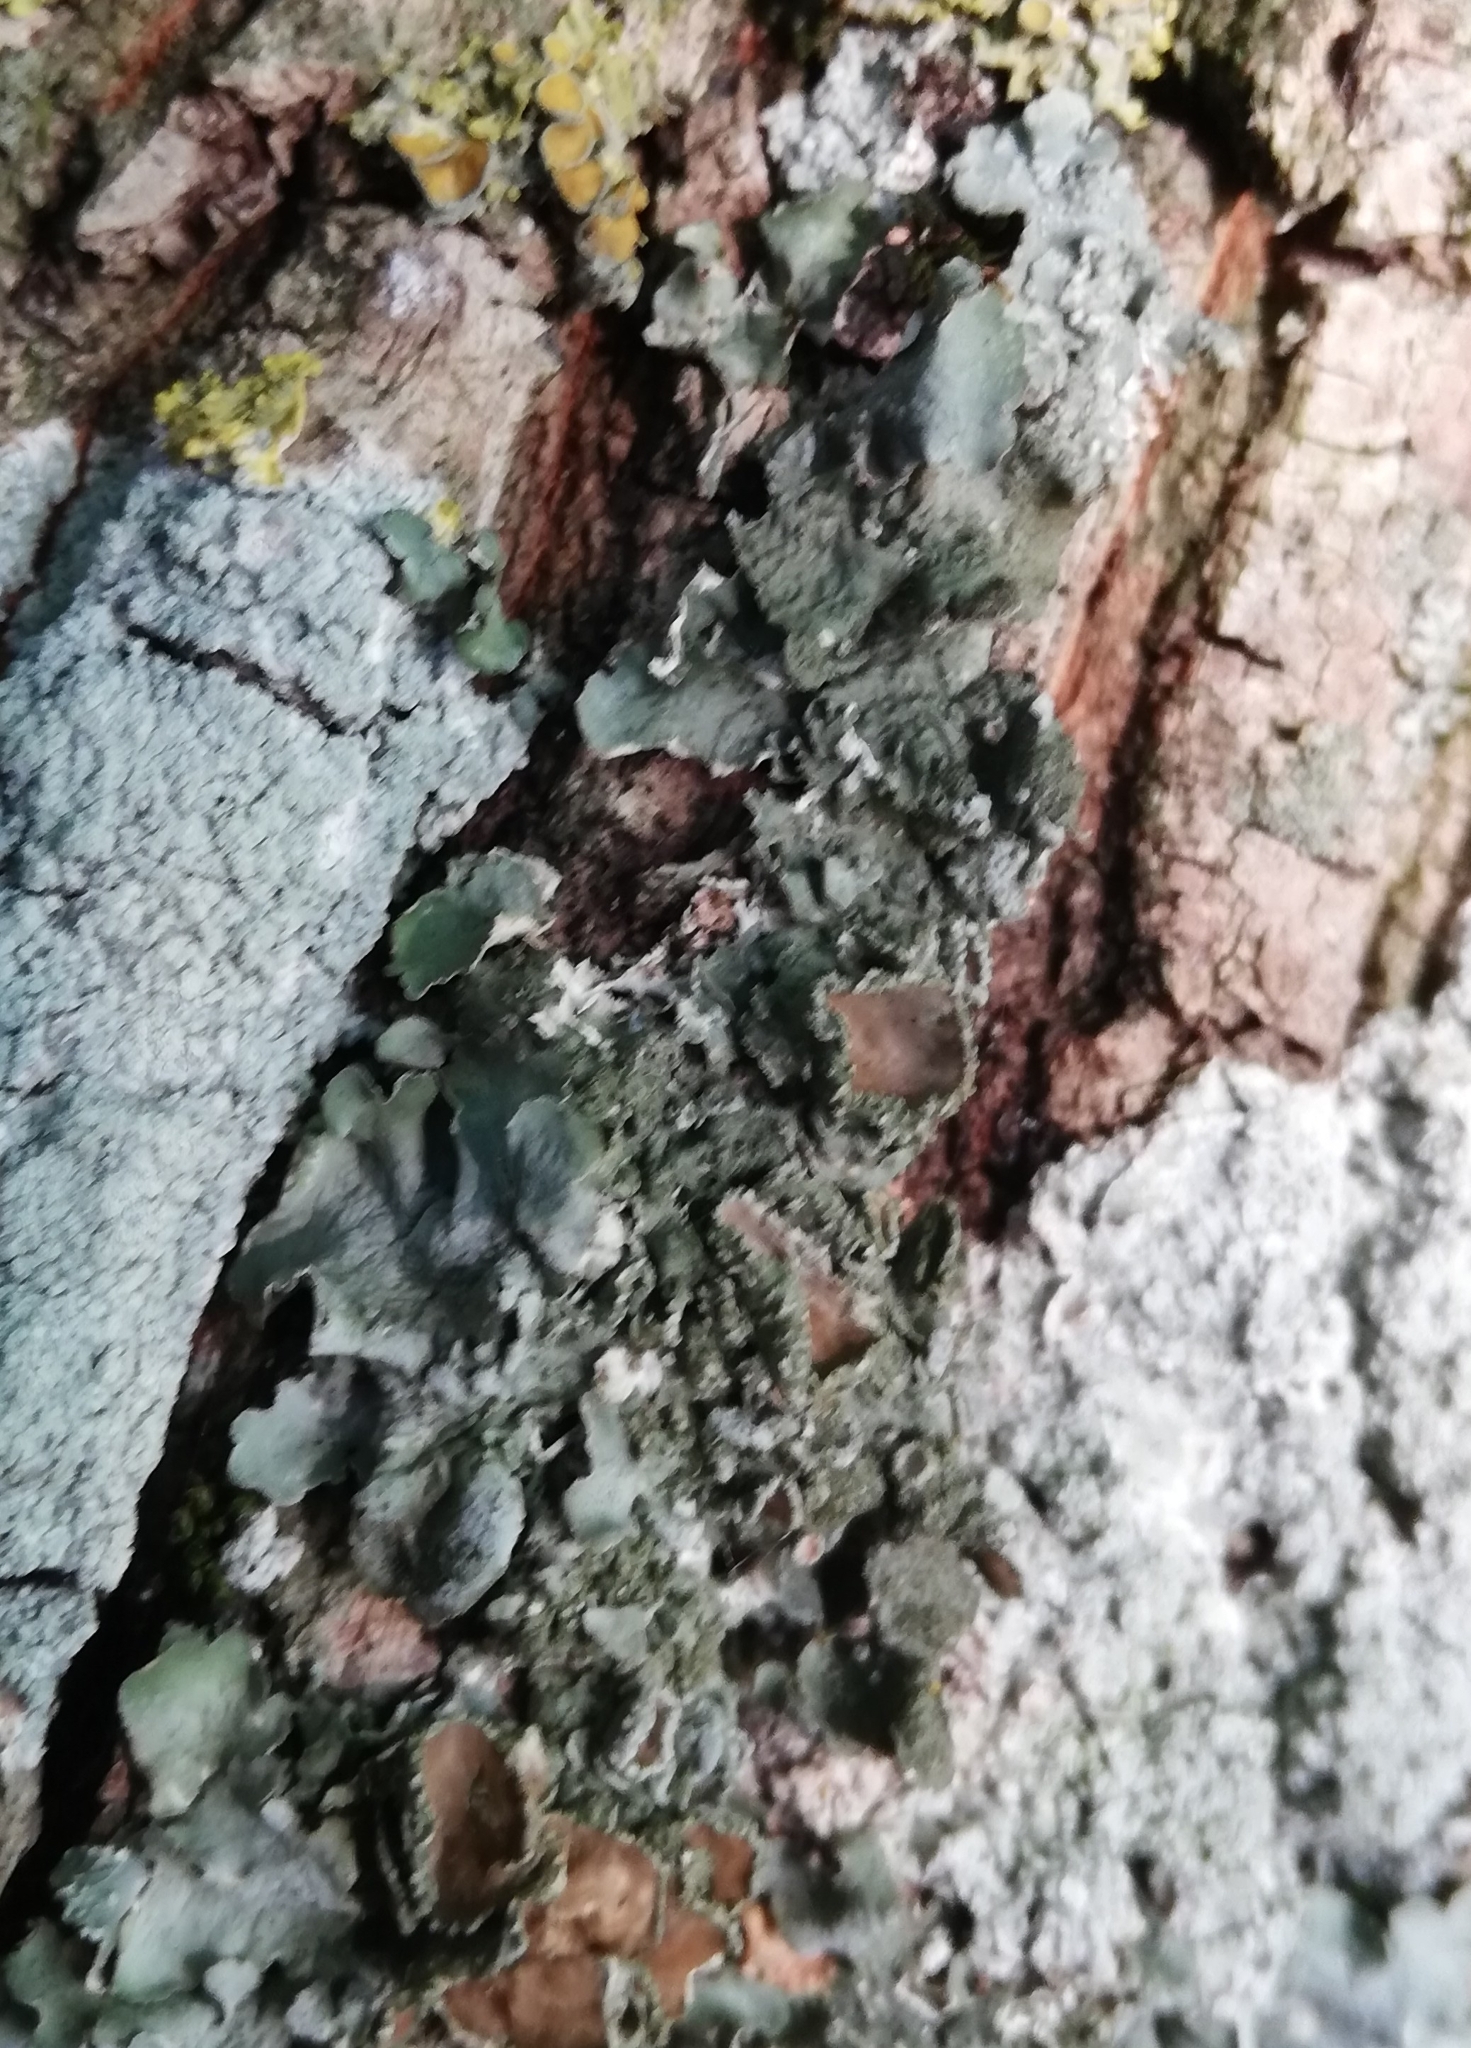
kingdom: Fungi
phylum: Ascomycota
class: Lecanoromycetes
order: Lecanorales
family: Parmeliaceae
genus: Pleurosticta
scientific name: Pleurosticta acetabulum
